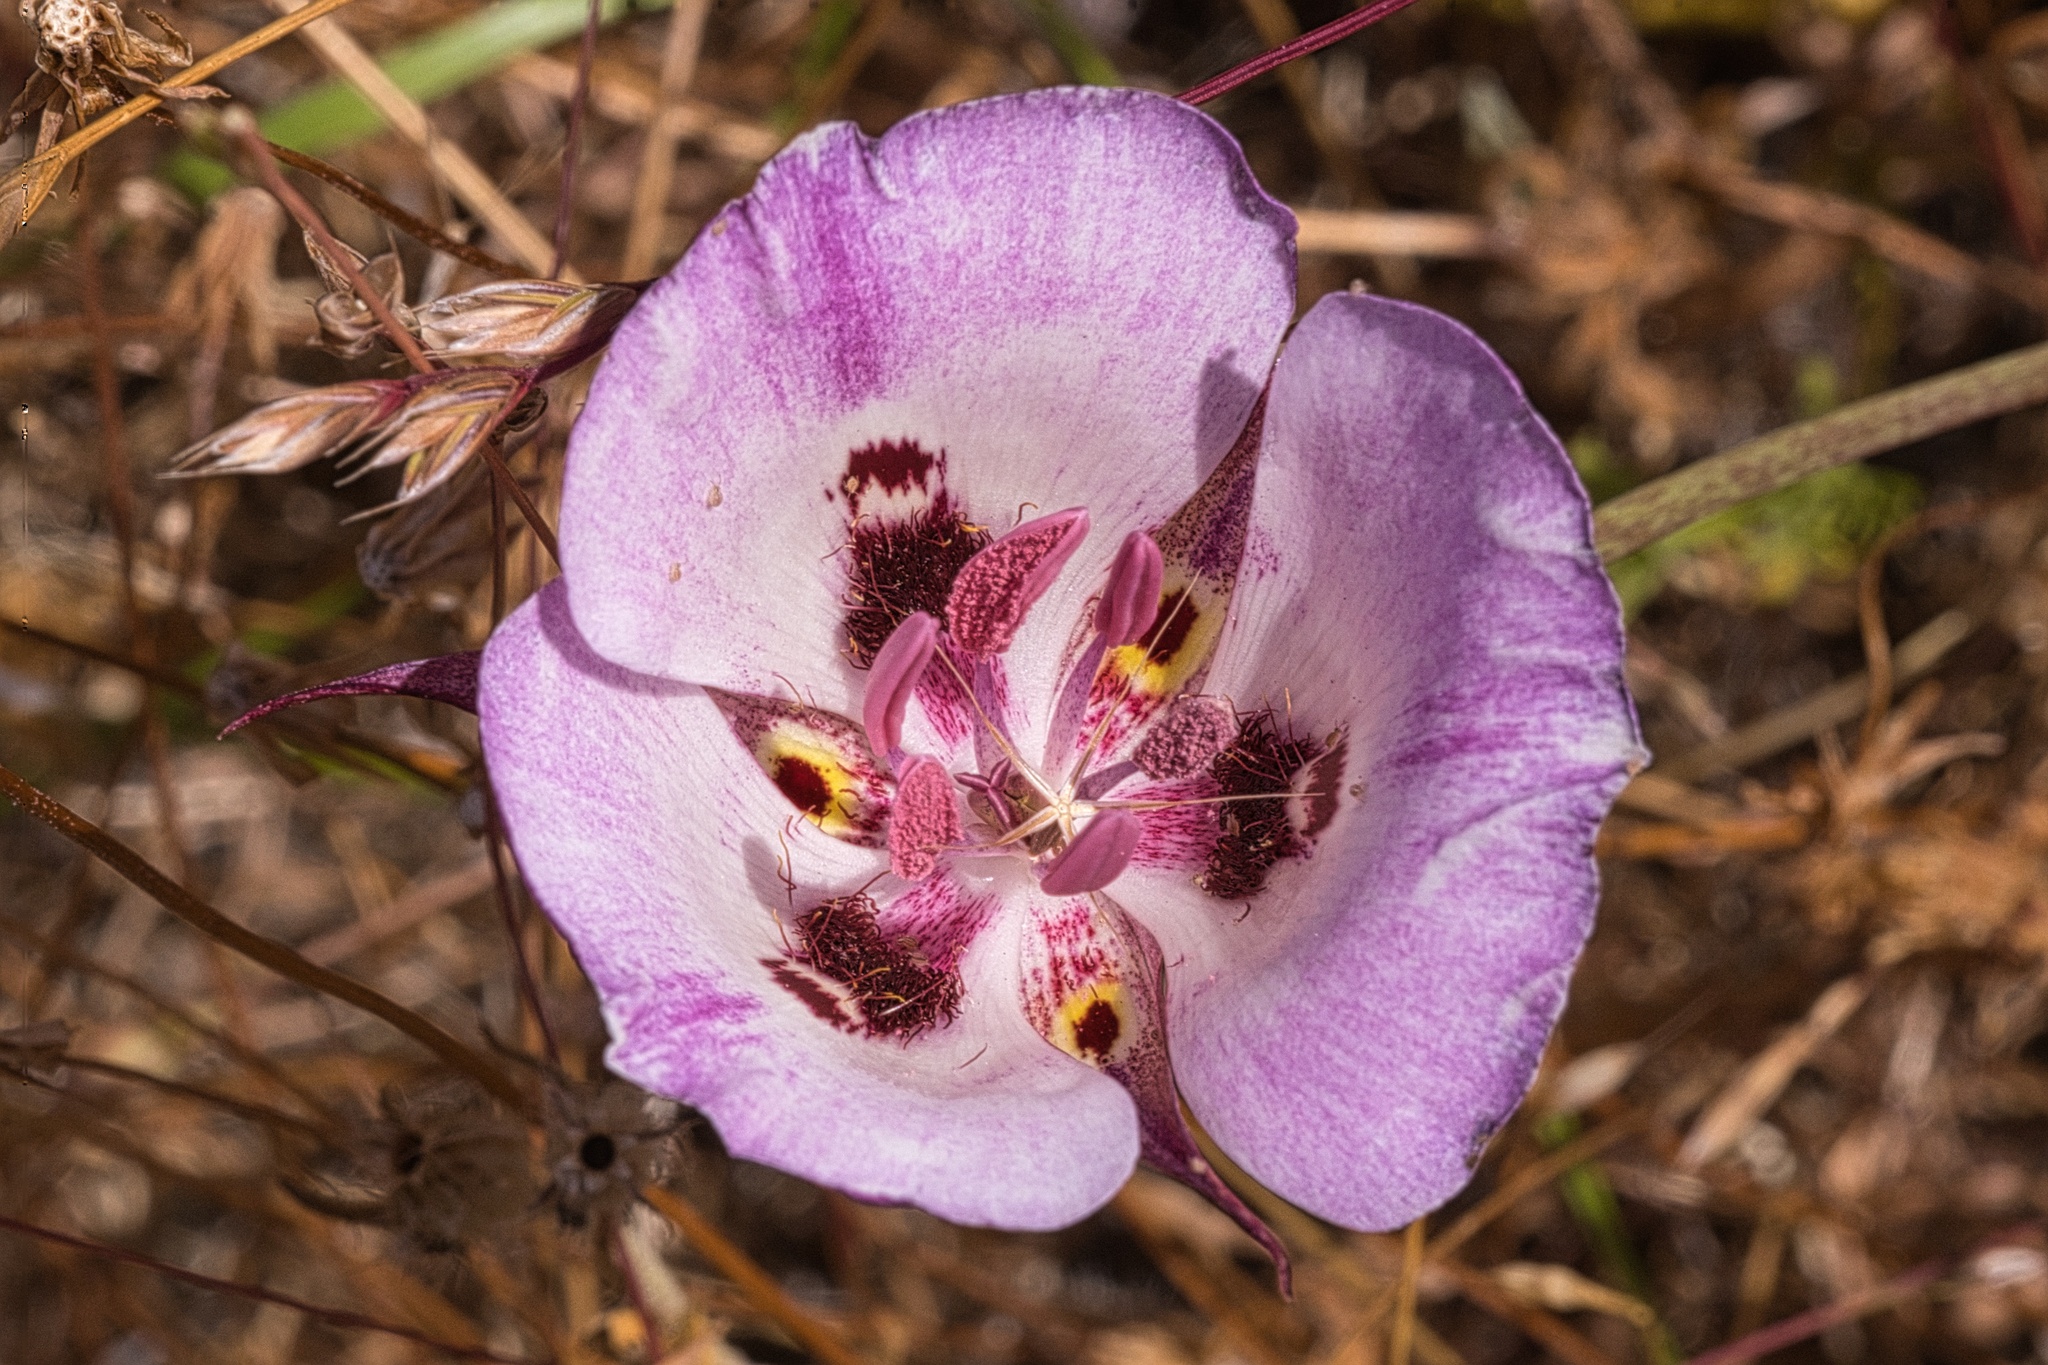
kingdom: Plantae
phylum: Tracheophyta
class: Liliopsida
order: Liliales
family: Liliaceae
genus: Calochortus
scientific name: Calochortus argillosus
